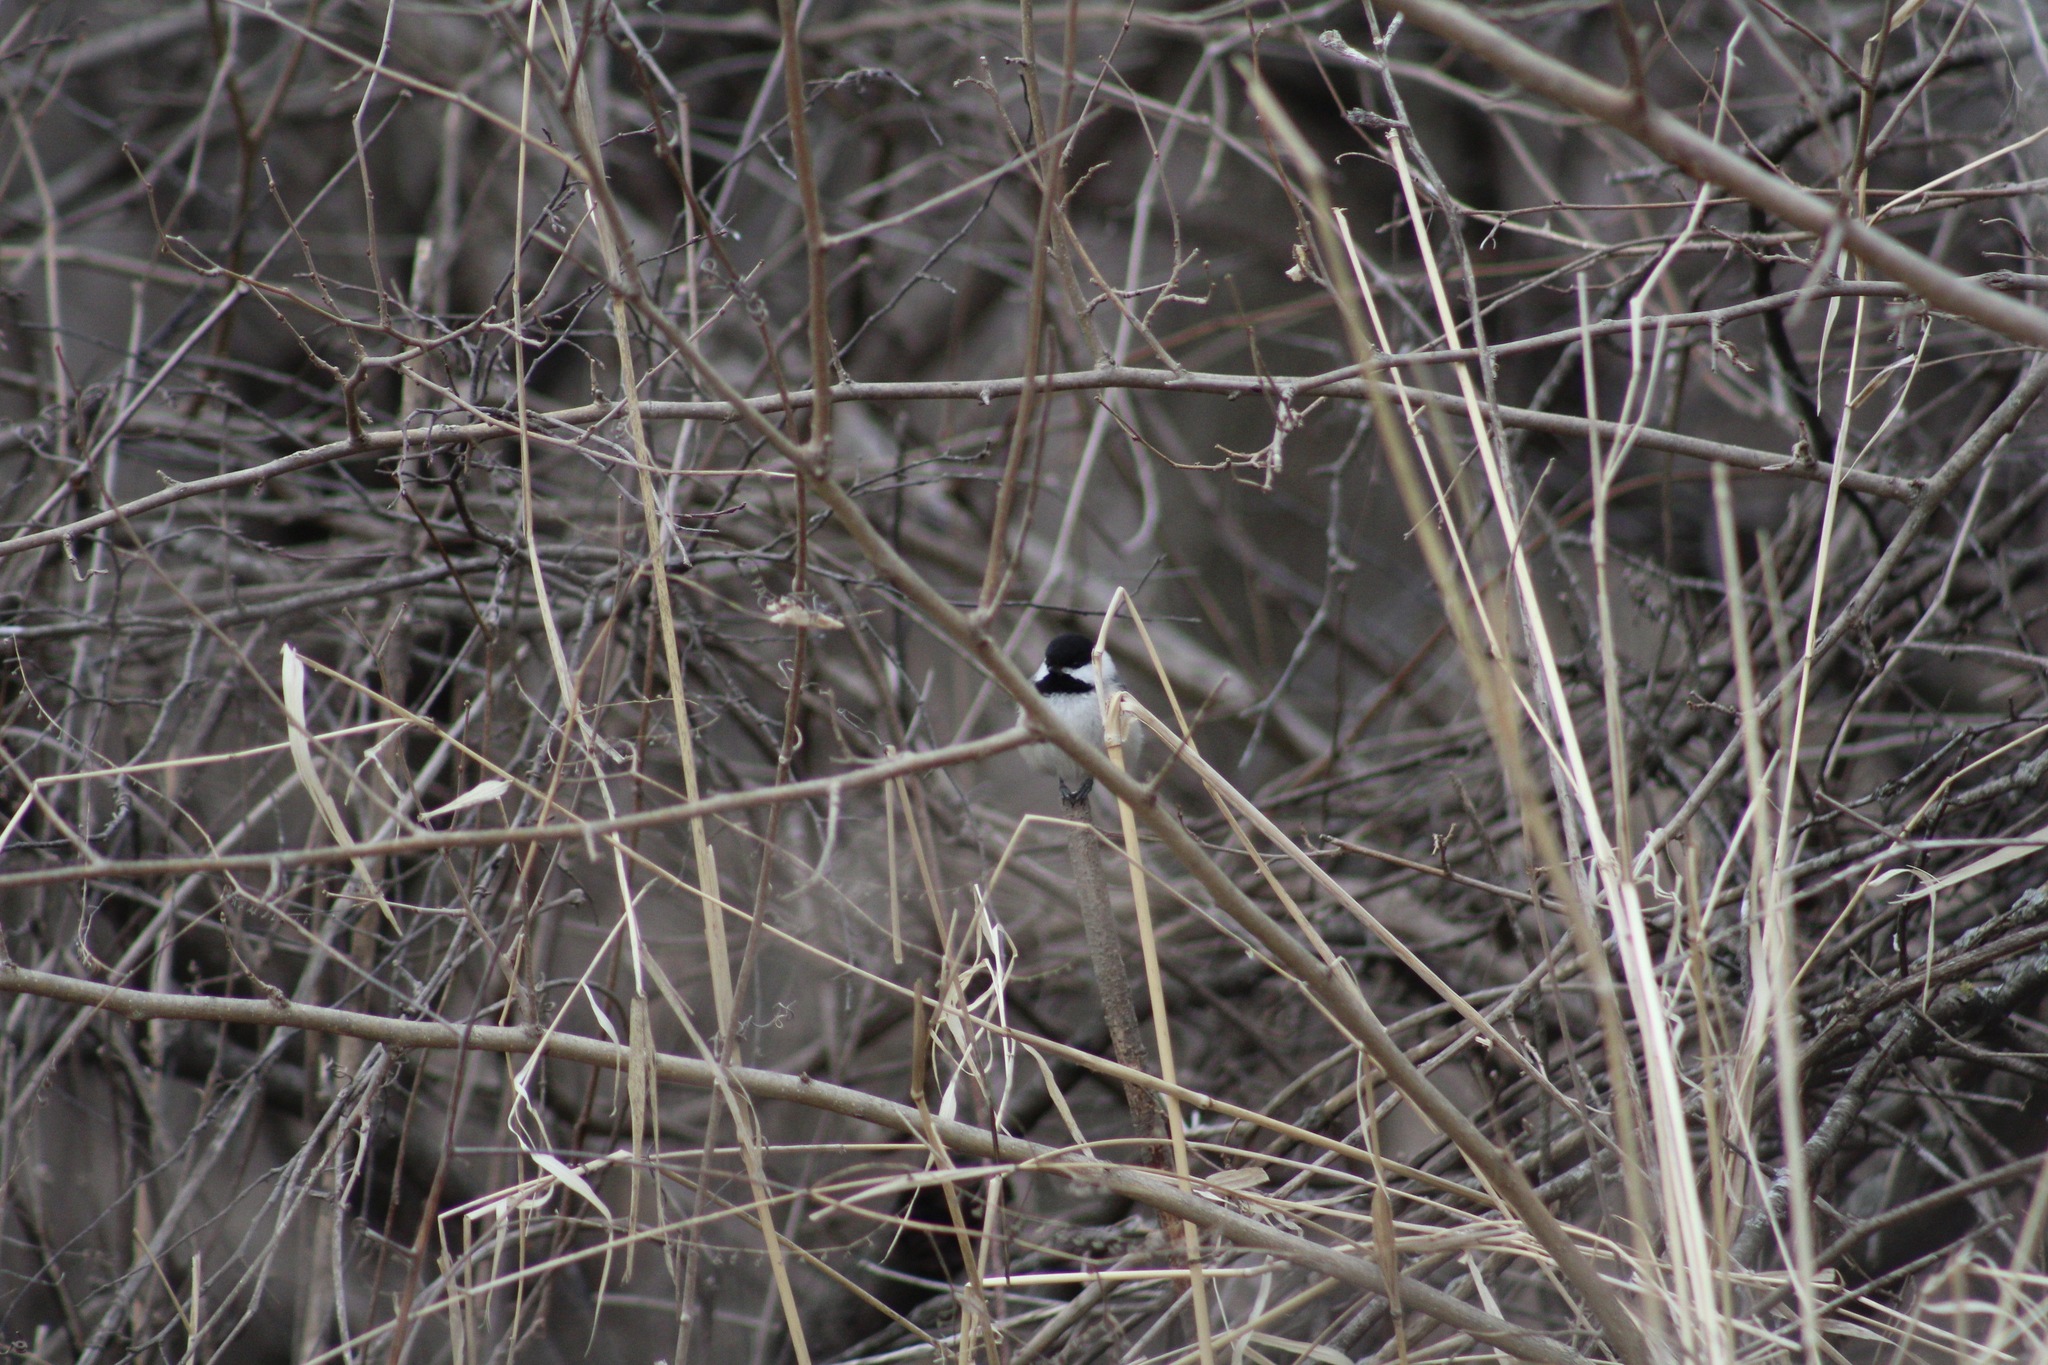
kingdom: Animalia
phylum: Chordata
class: Aves
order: Passeriformes
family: Paridae
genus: Poecile
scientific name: Poecile atricapillus
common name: Black-capped chickadee
